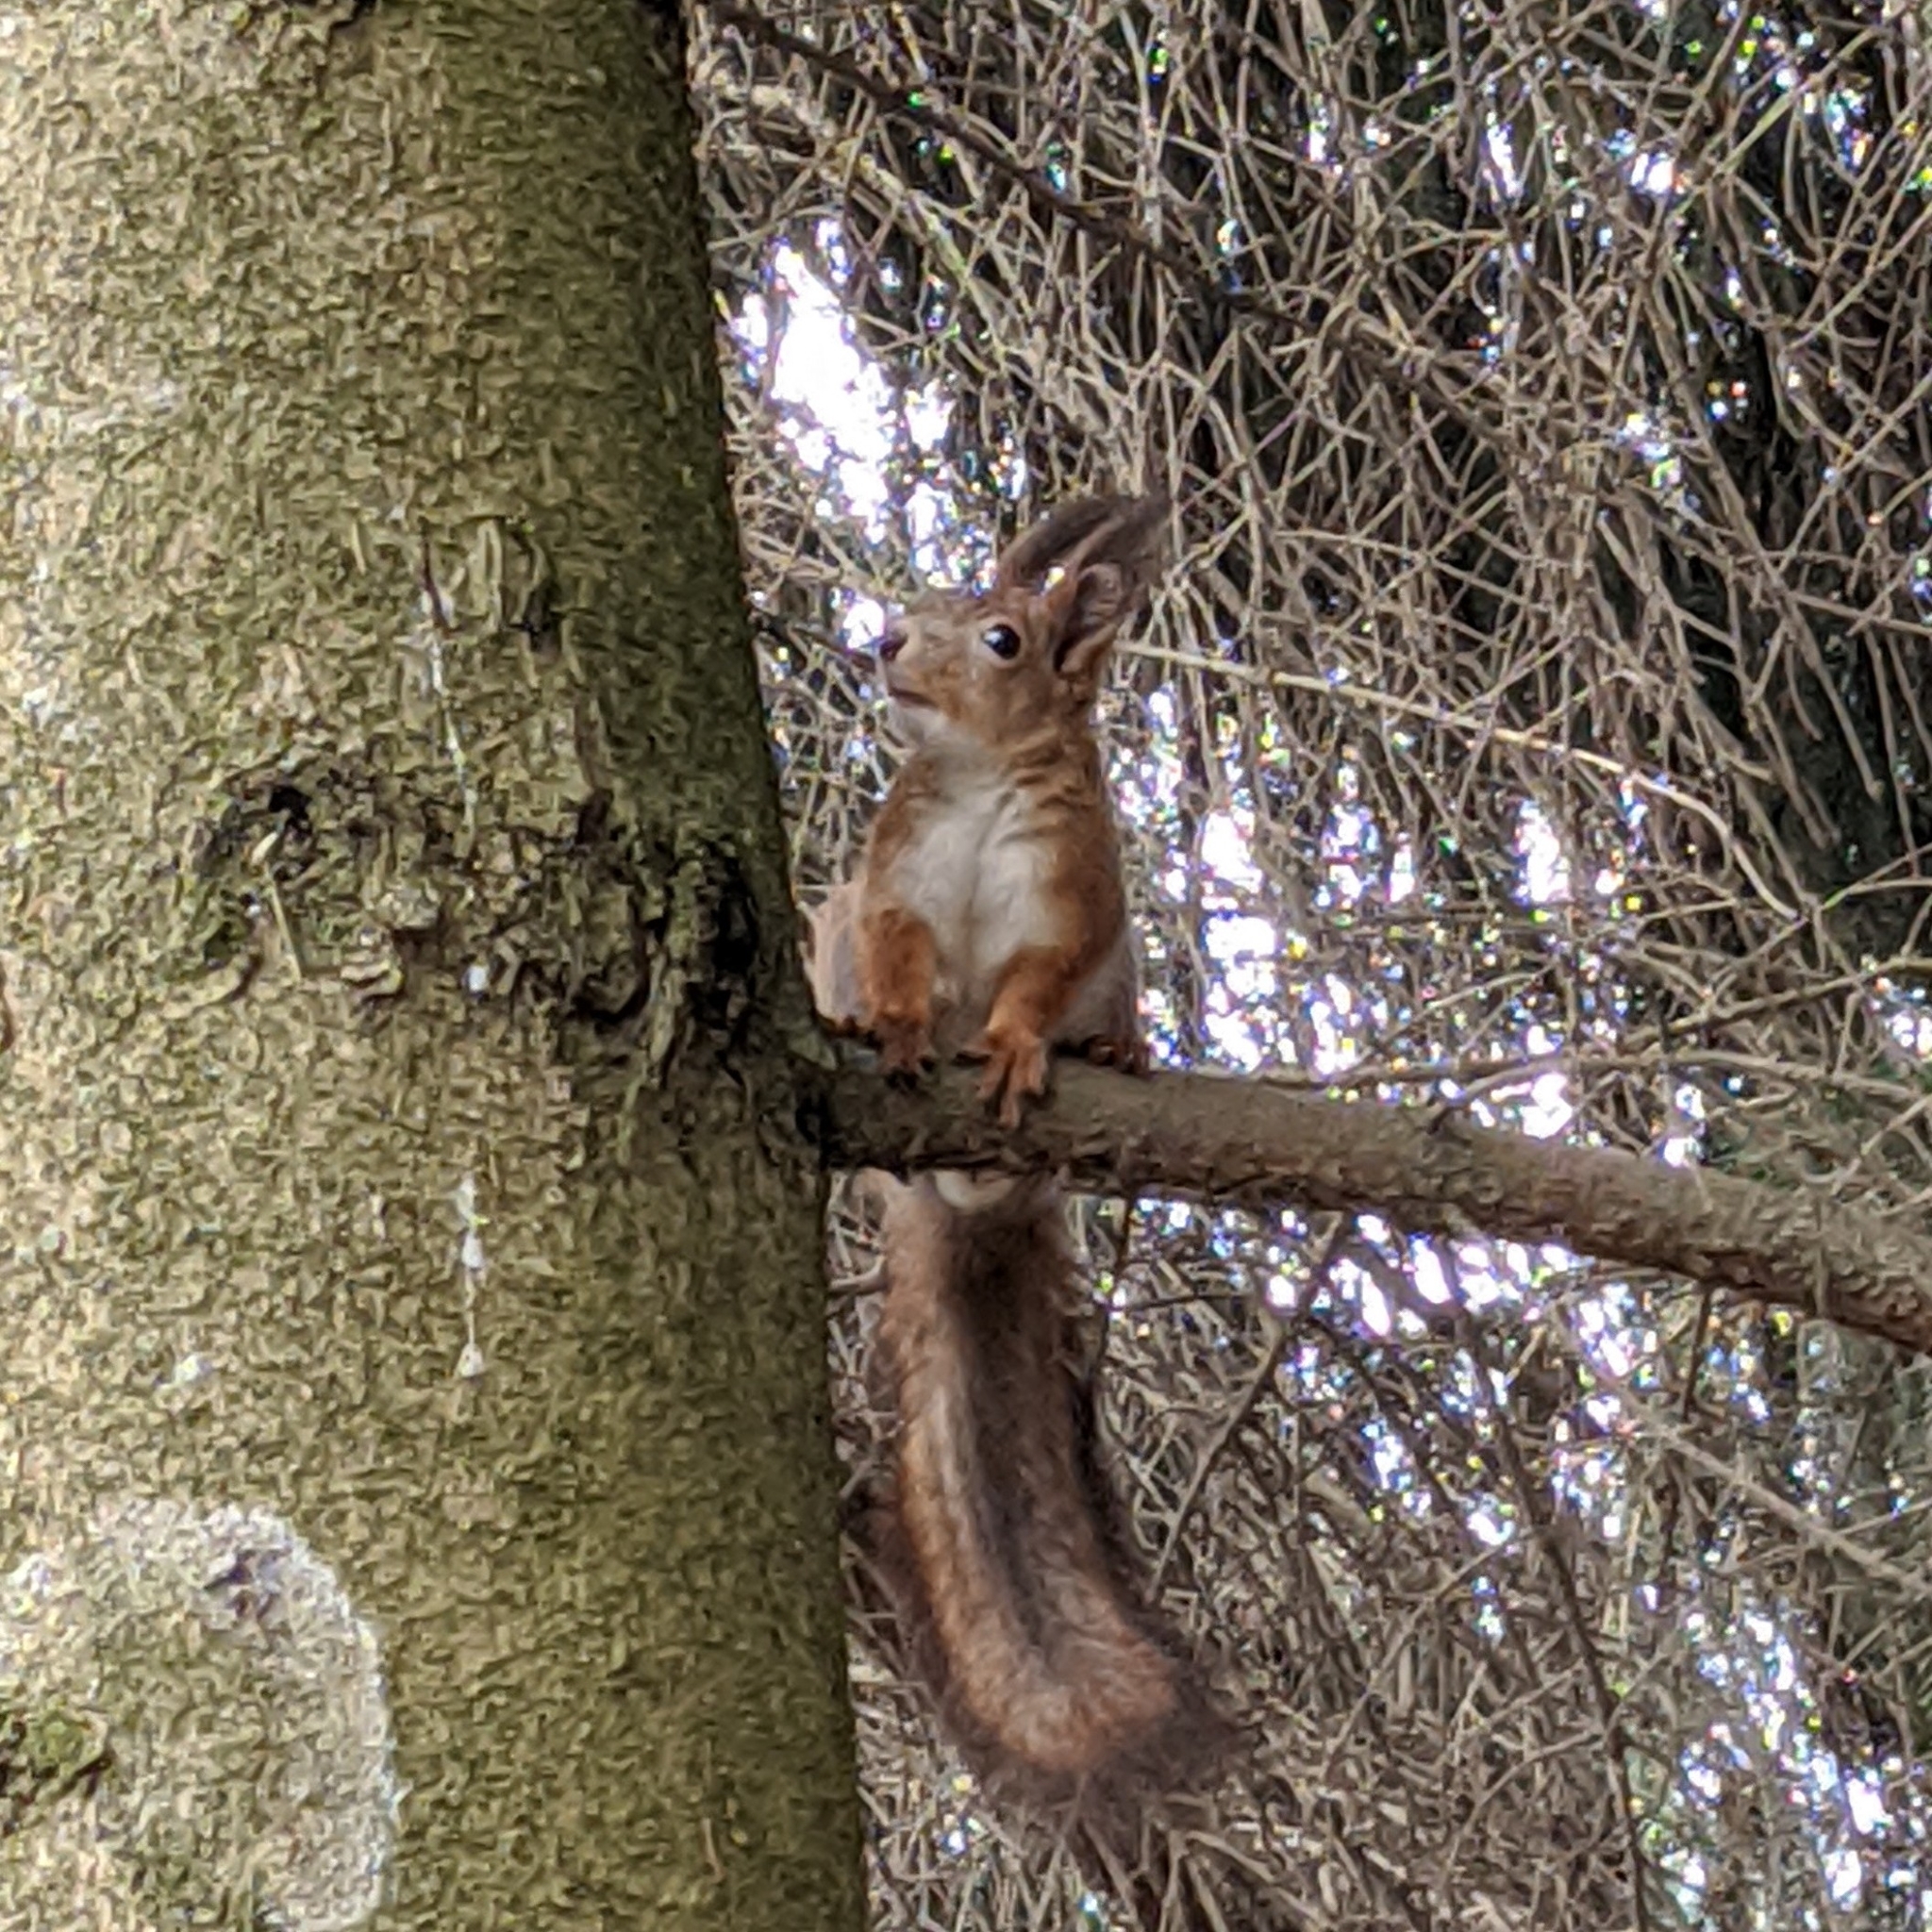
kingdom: Animalia
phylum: Chordata
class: Mammalia
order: Rodentia
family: Sciuridae
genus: Sciurus
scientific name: Sciurus vulgaris
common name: Eurasian red squirrel
